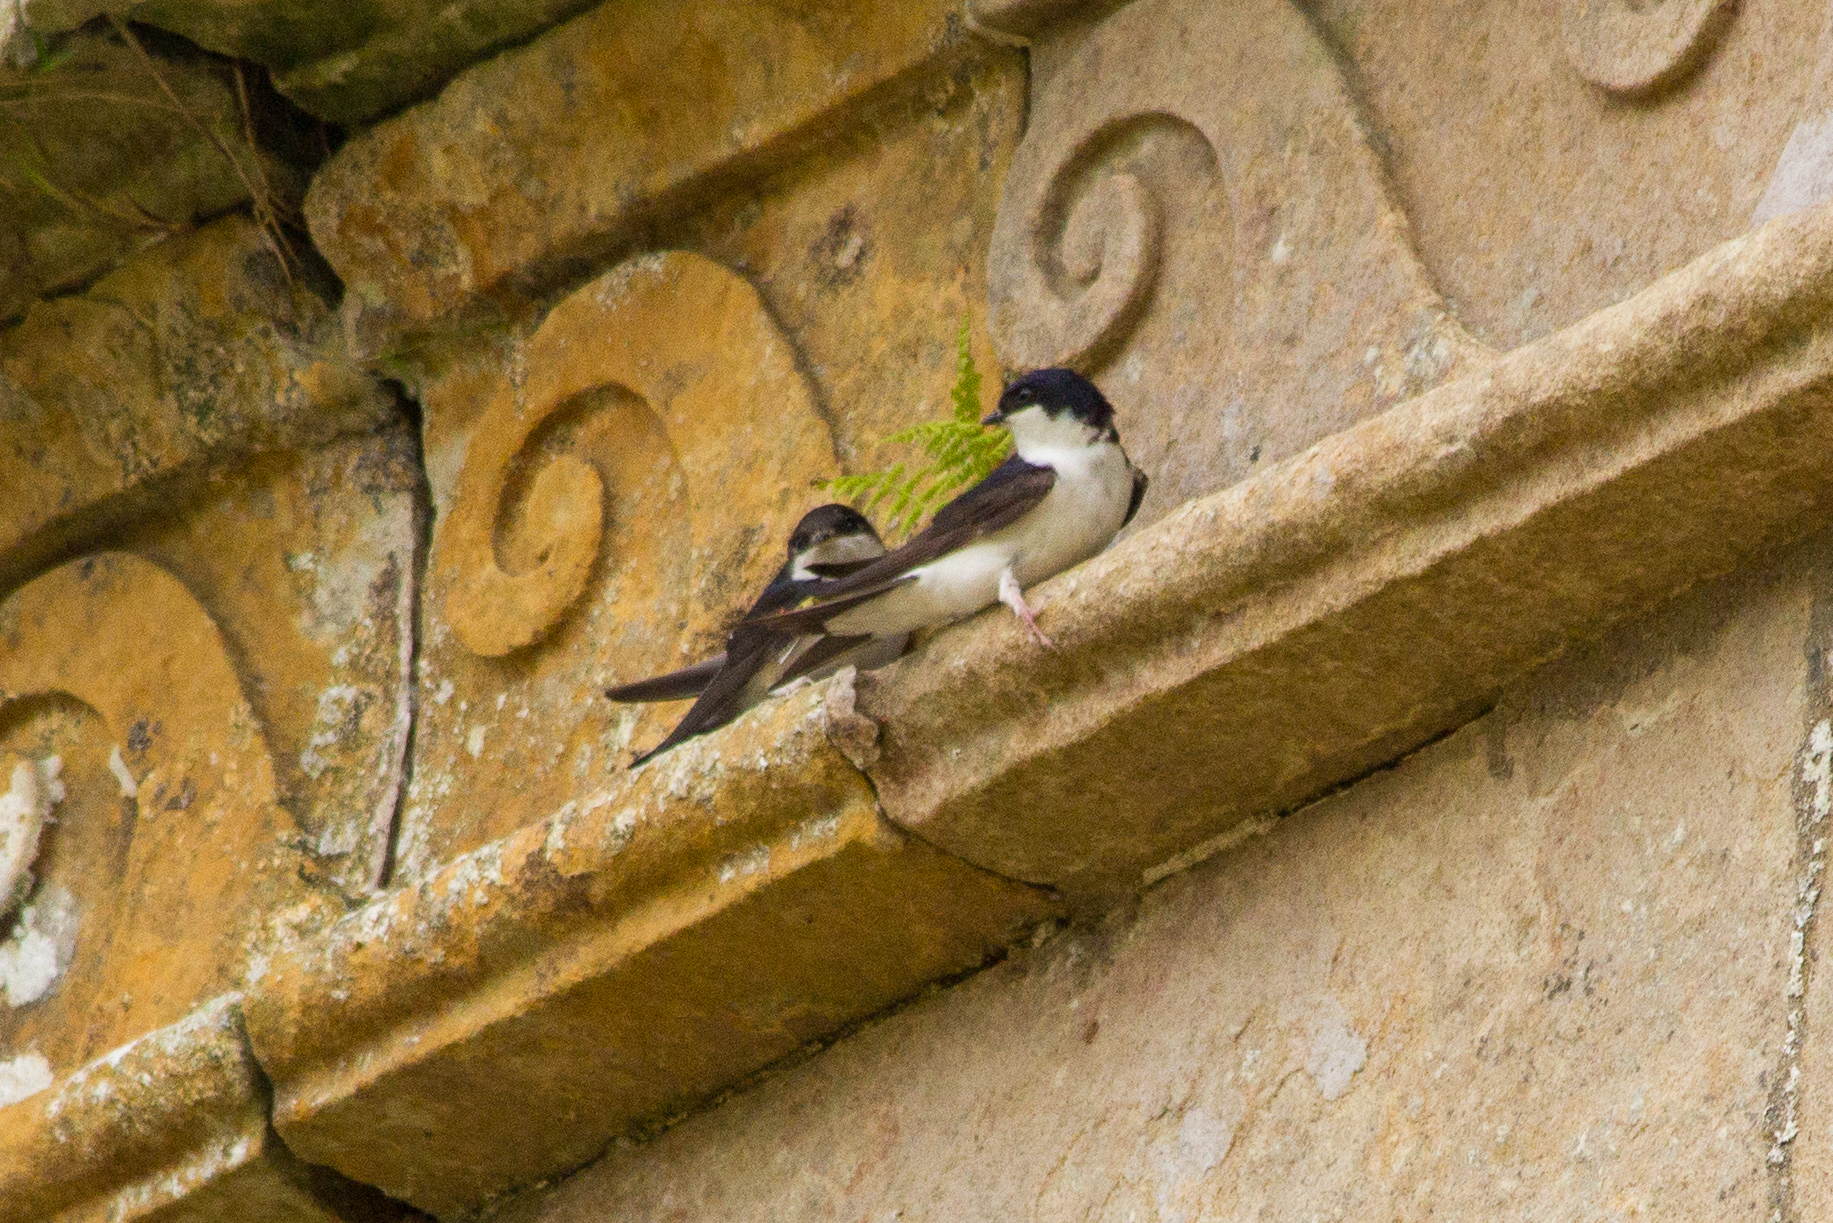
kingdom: Animalia
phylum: Chordata
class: Aves
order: Passeriformes
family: Hirundinidae
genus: Delichon
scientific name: Delichon urbicum
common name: Common house martin
